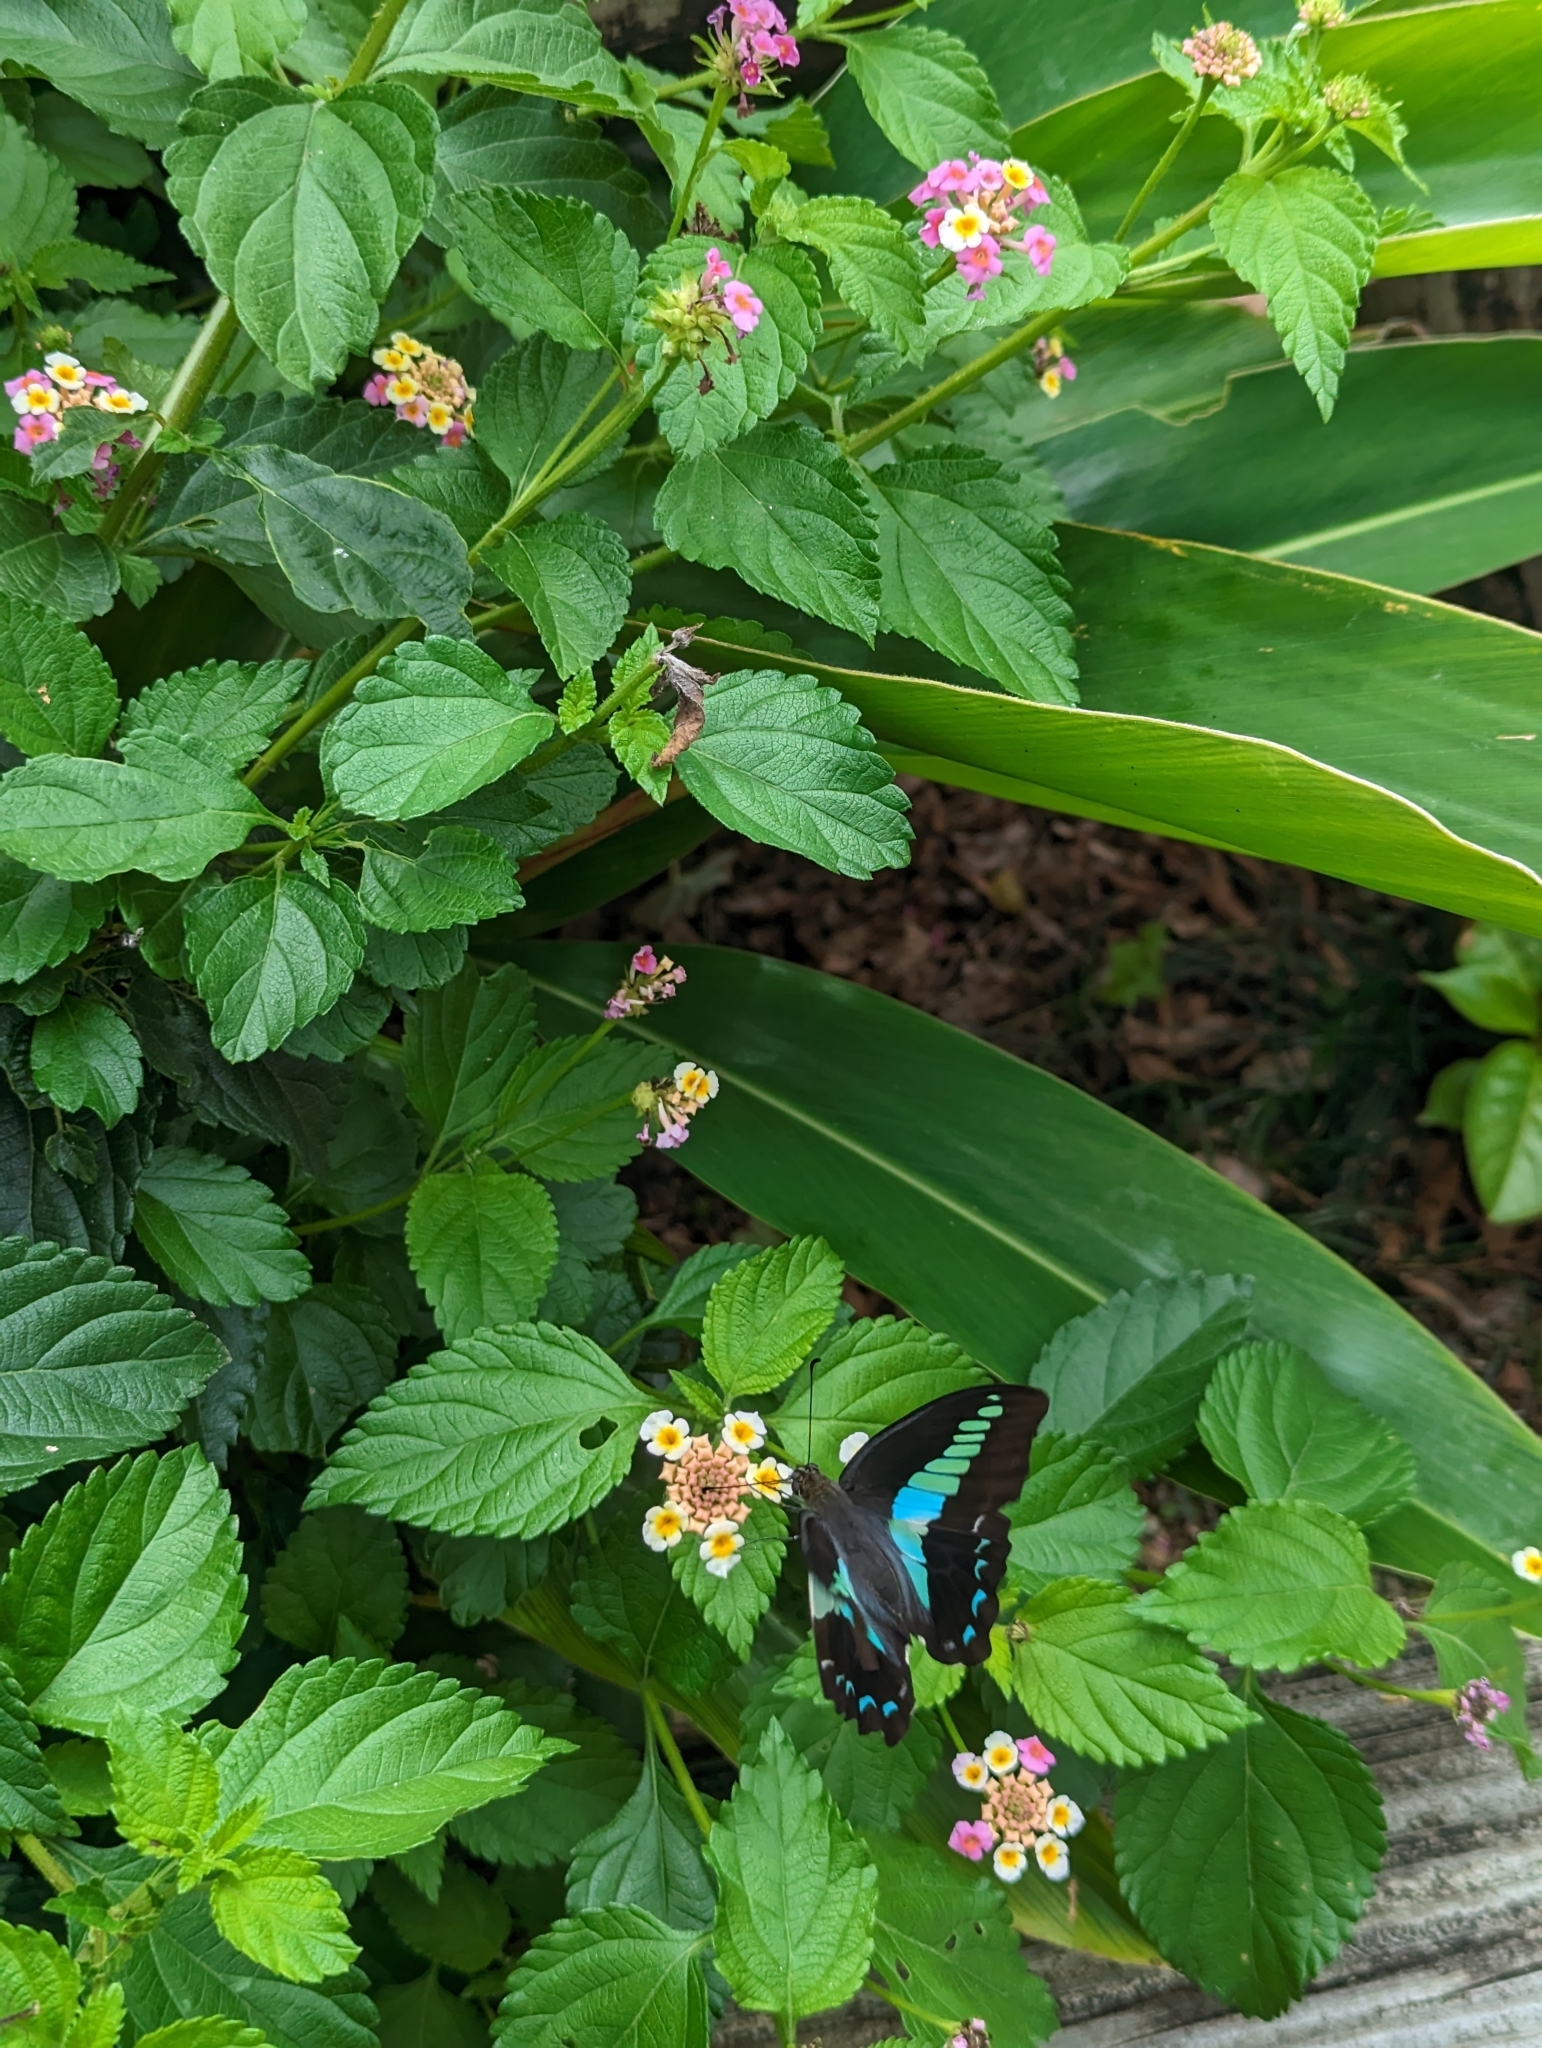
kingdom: Fungi
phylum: Ascomycota
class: Sordariomycetes
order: Microascales
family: Microascaceae
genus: Graphium
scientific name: Graphium sarpedon
